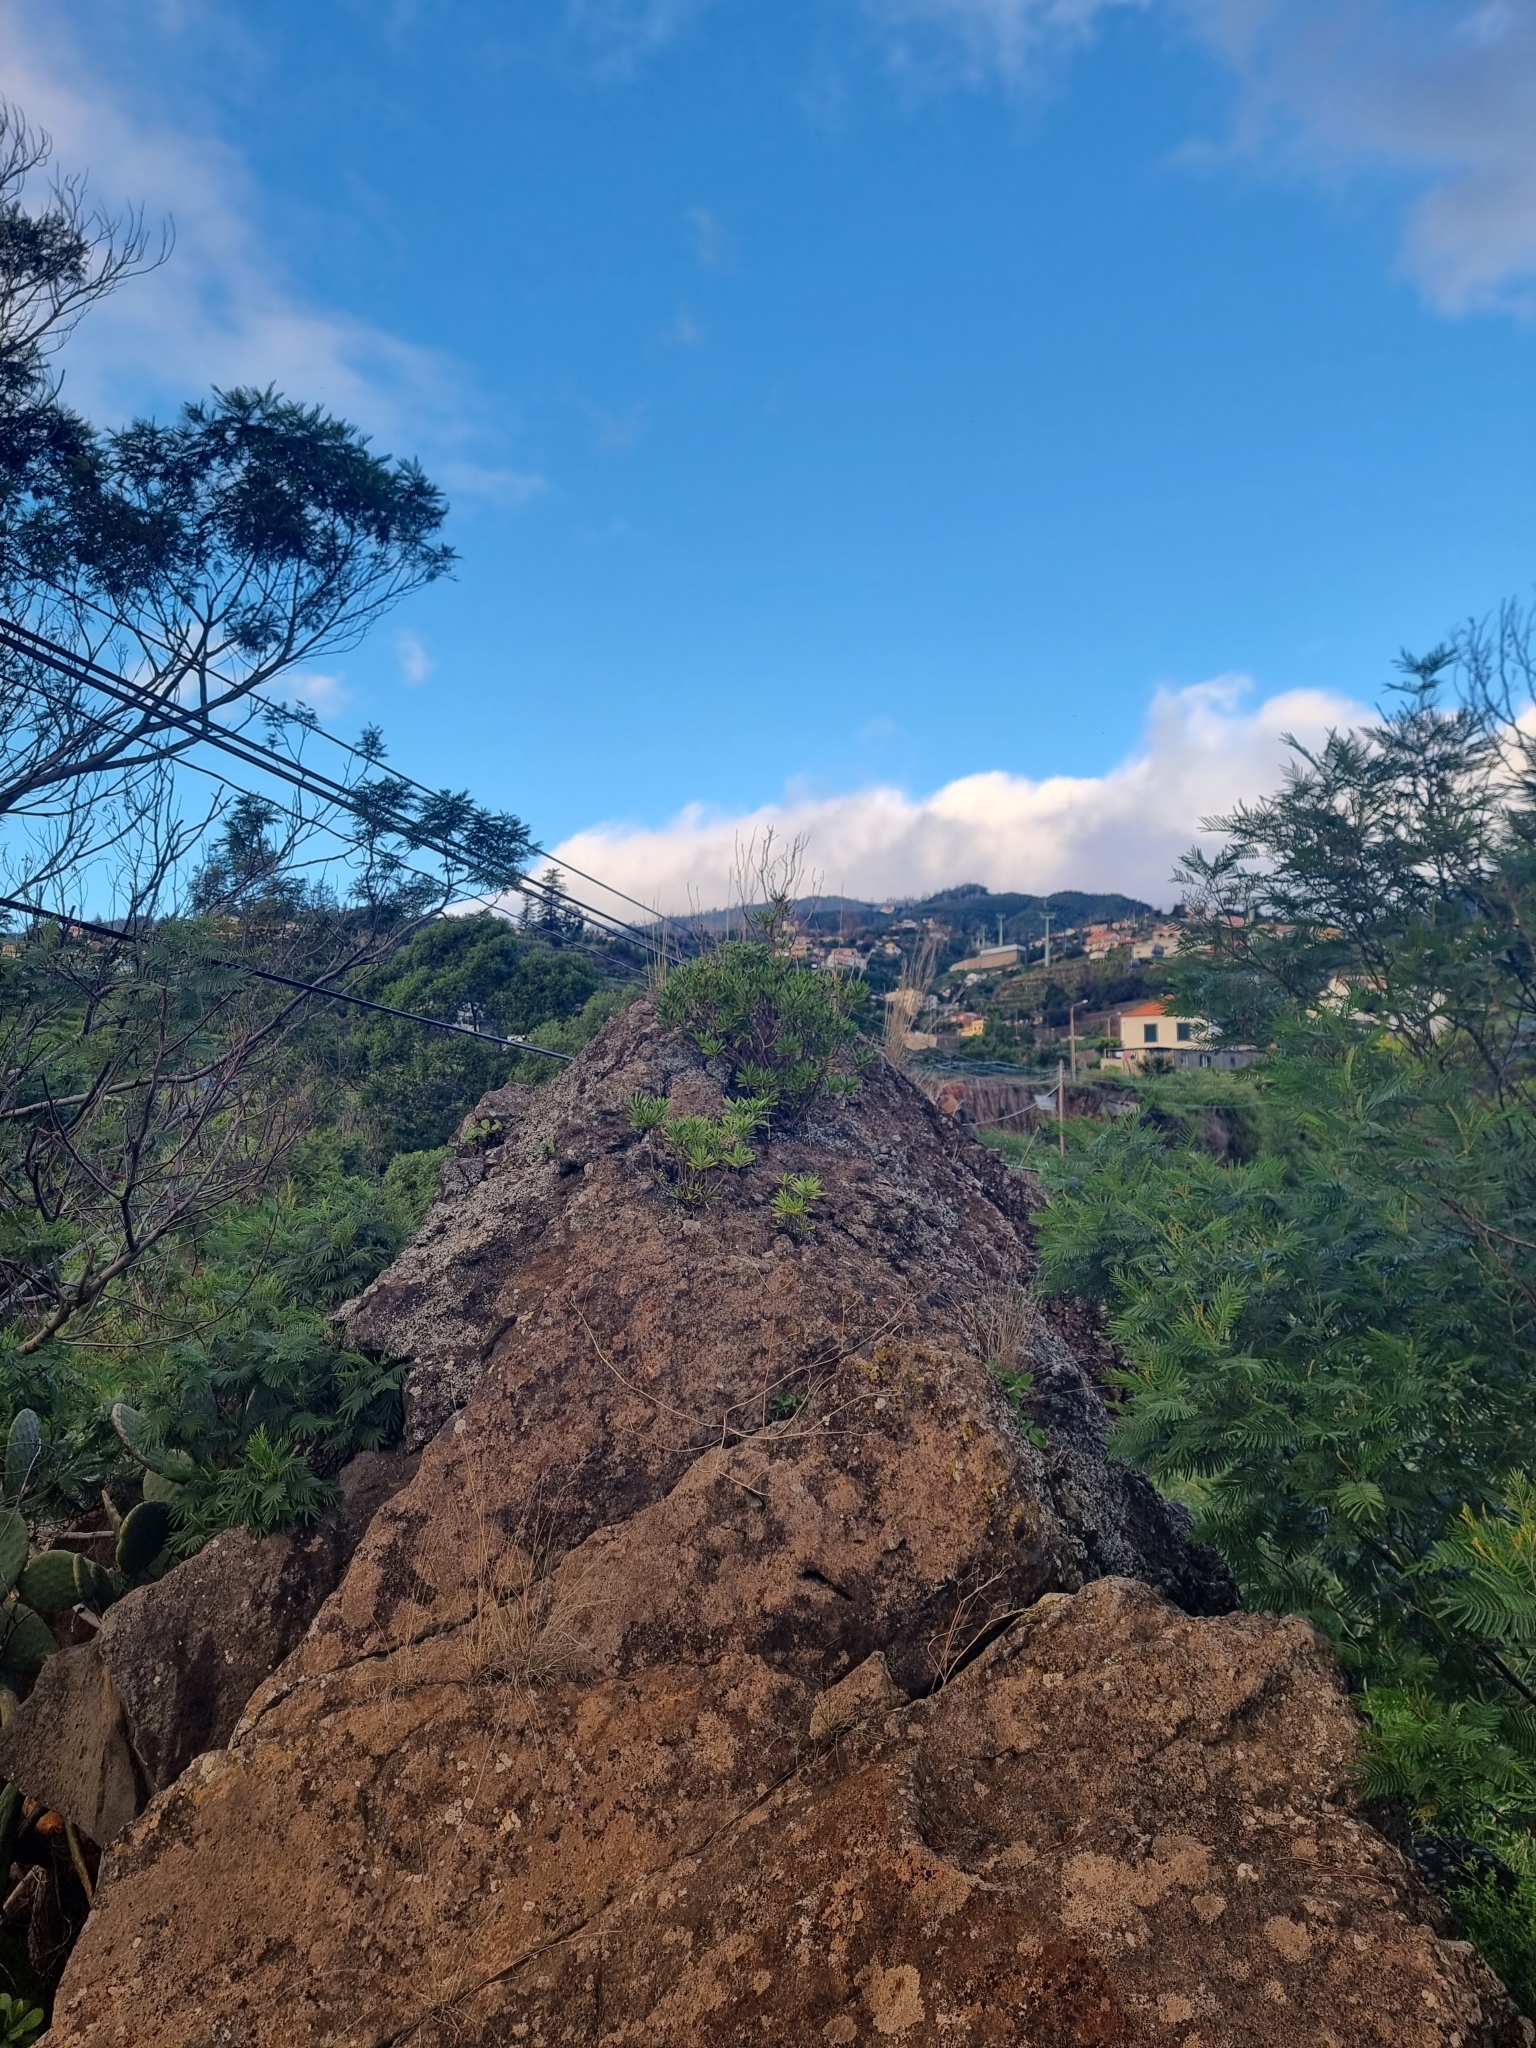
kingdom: Plantae
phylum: Tracheophyta
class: Magnoliopsida
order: Lamiales
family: Plantaginaceae
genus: Globularia
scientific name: Globularia salicina
